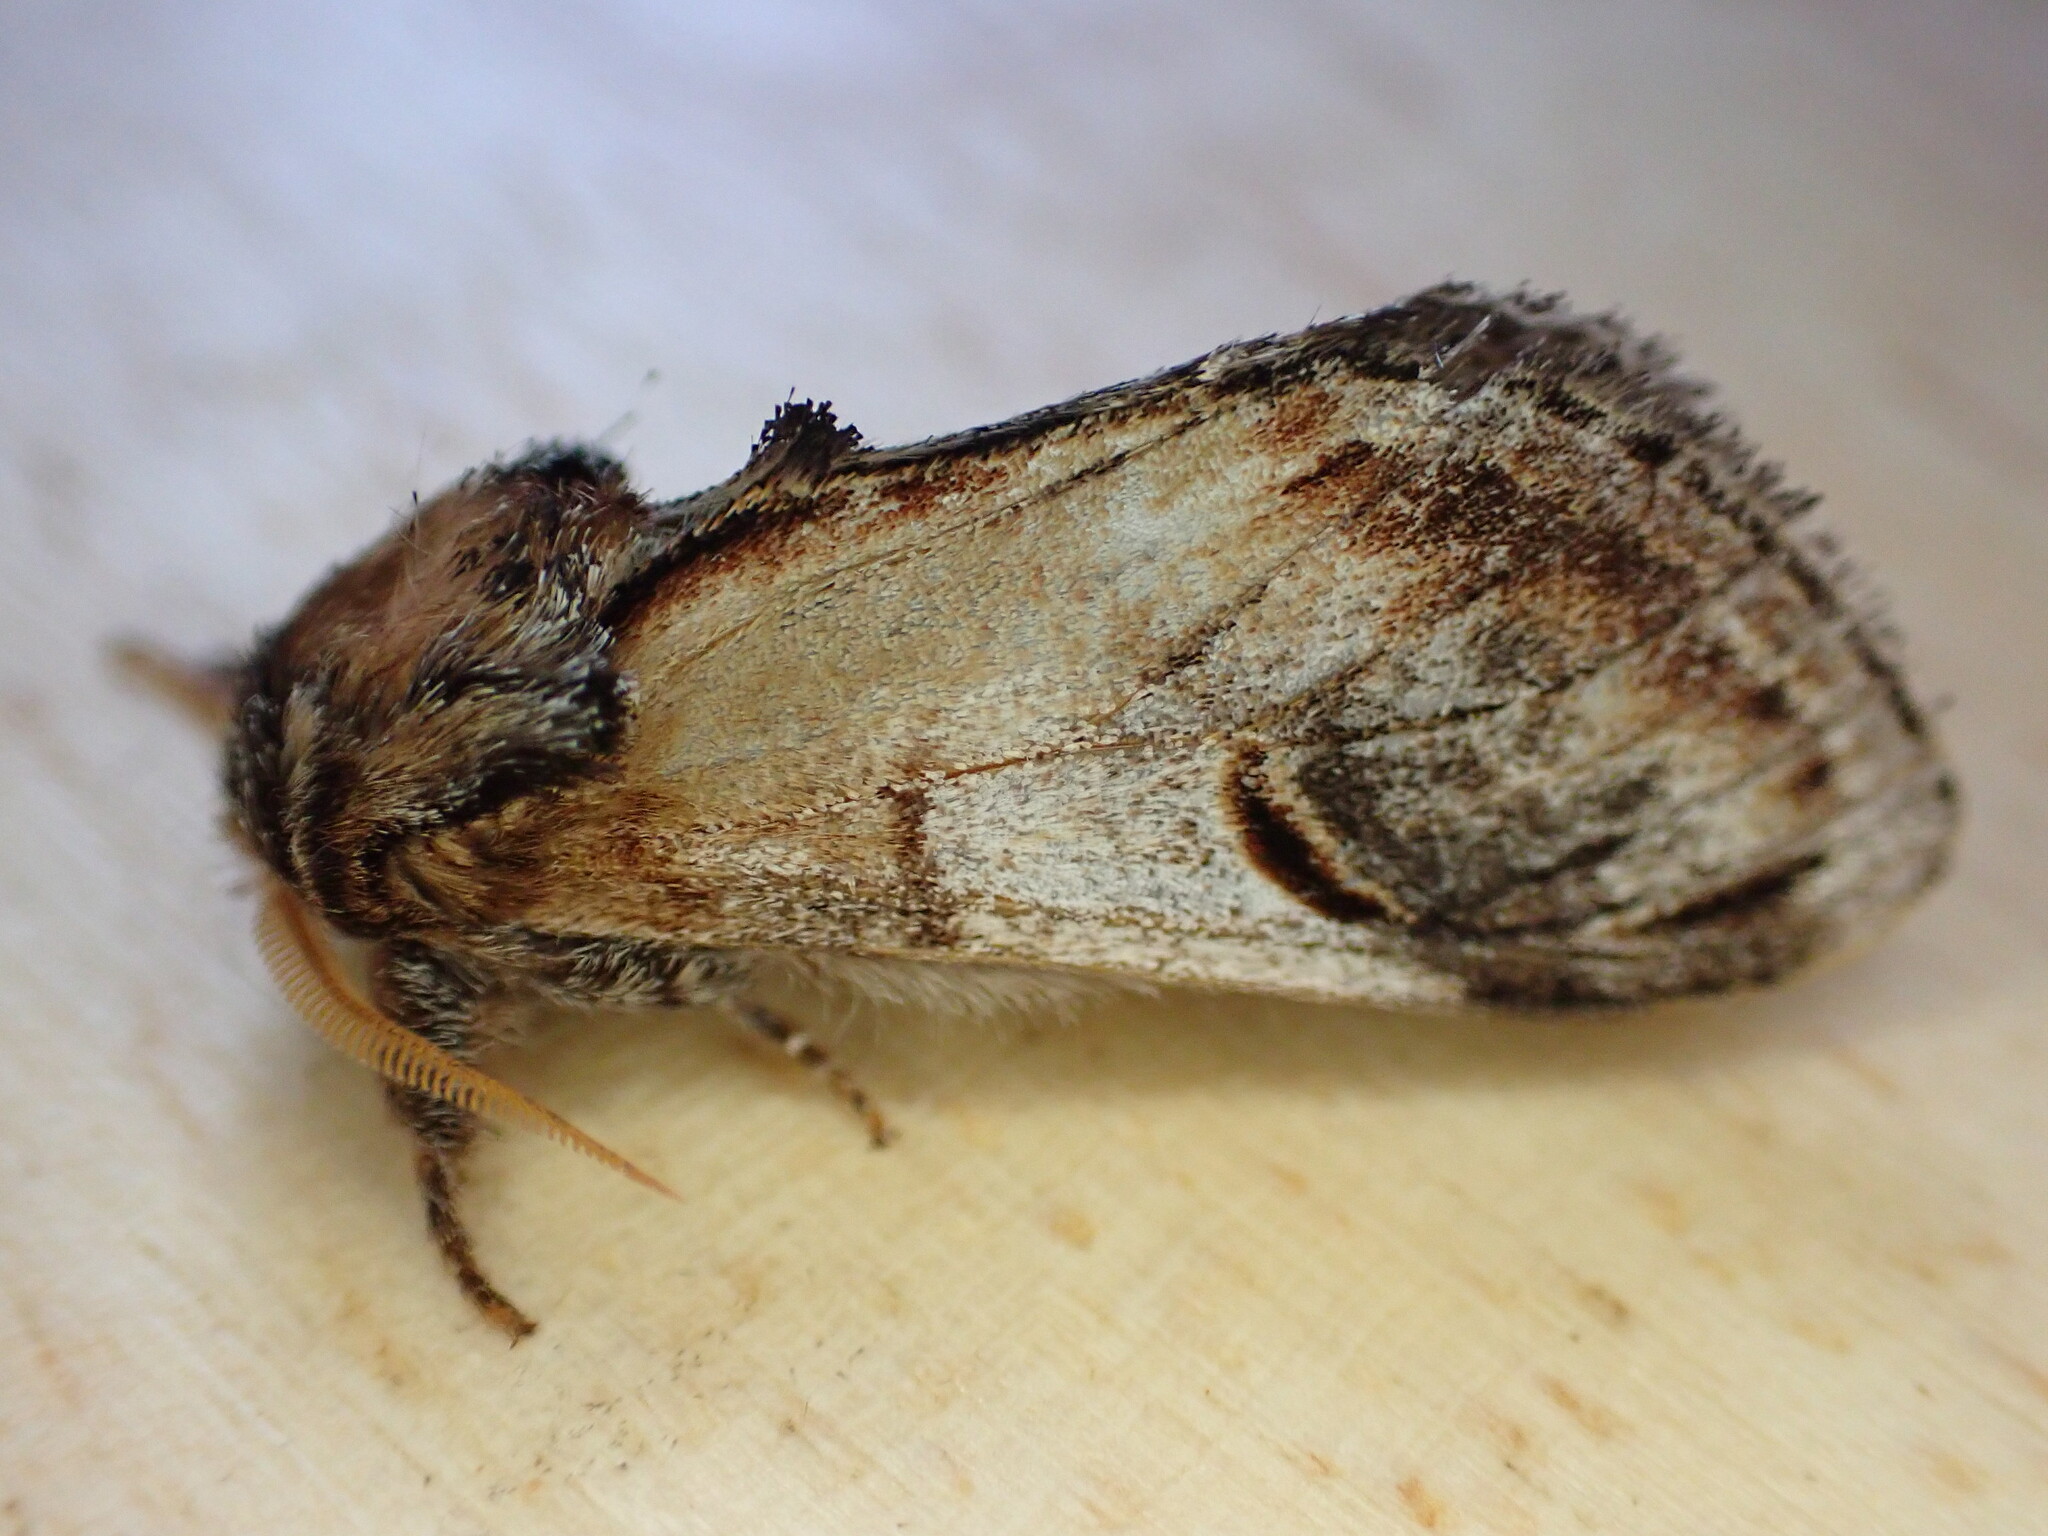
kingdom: Animalia
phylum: Arthropoda
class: Insecta
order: Lepidoptera
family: Notodontidae
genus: Notodonta
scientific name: Notodonta ziczac
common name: Pebble prominent
